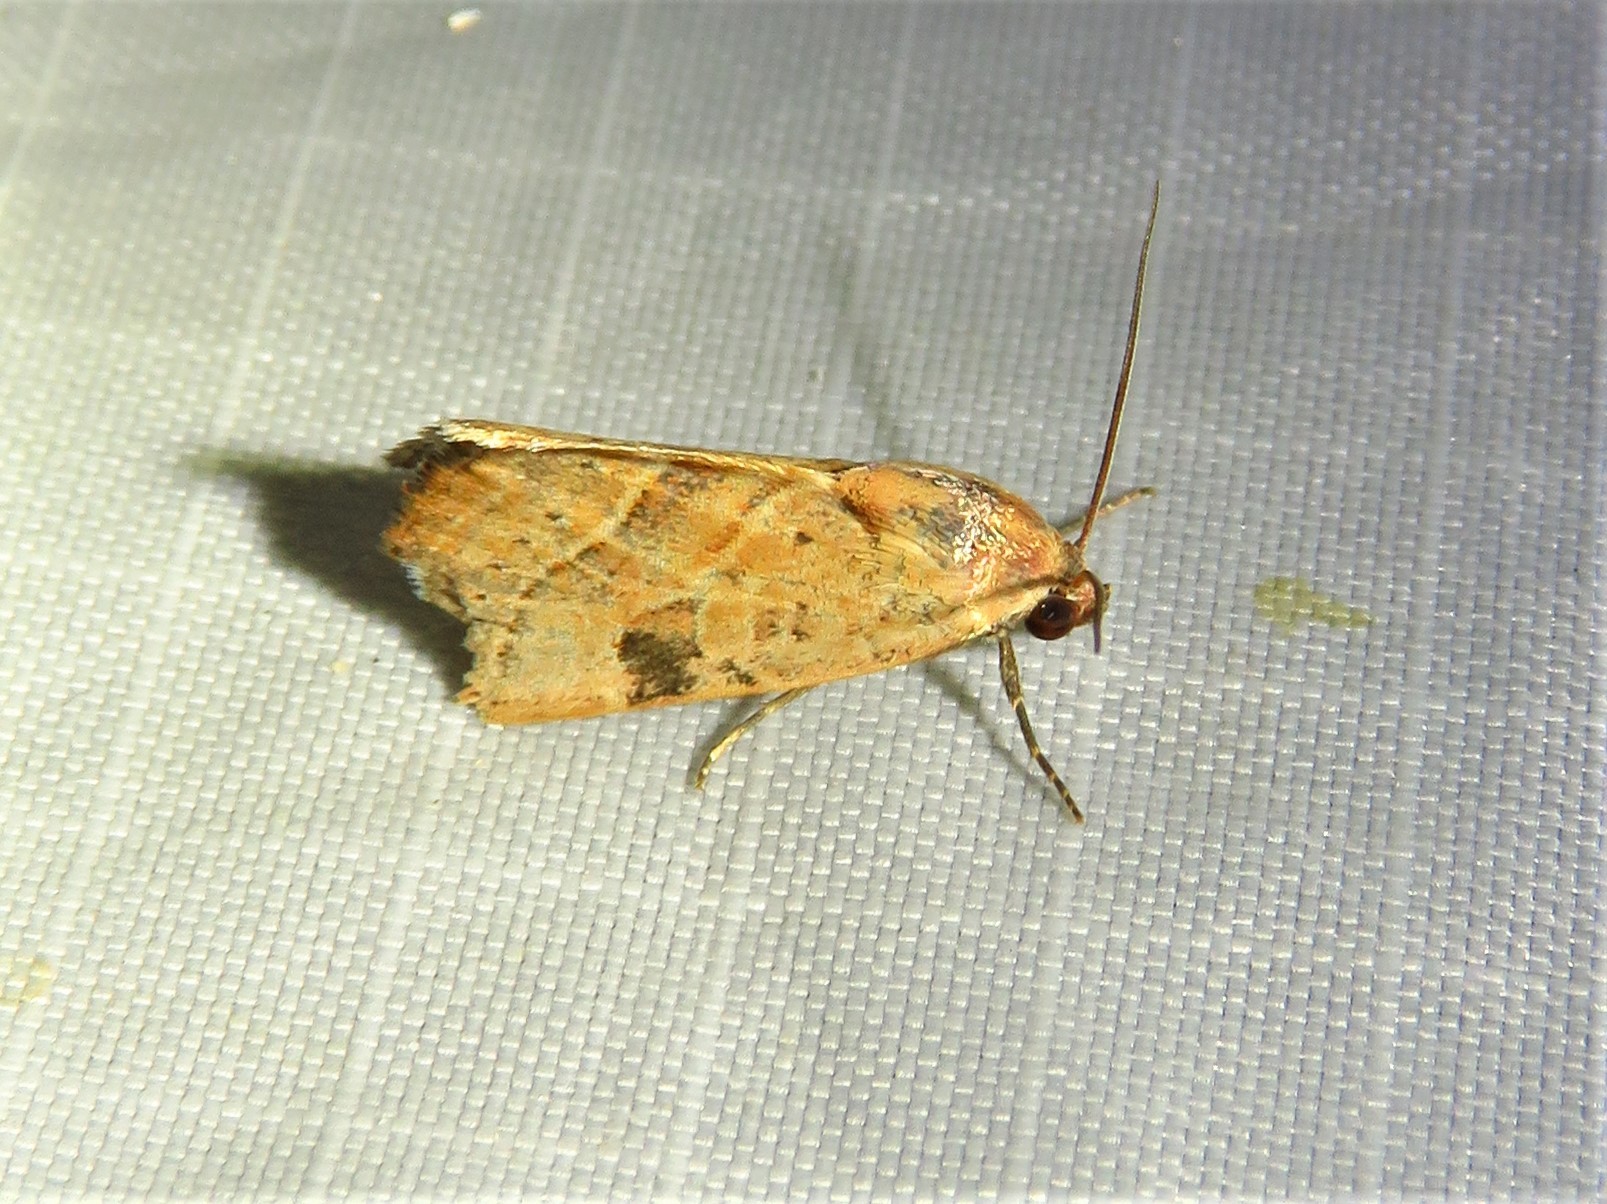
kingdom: Animalia
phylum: Arthropoda
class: Insecta
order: Lepidoptera
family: Noctuidae
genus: Galgula
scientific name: Galgula partita
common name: Wedgeling
